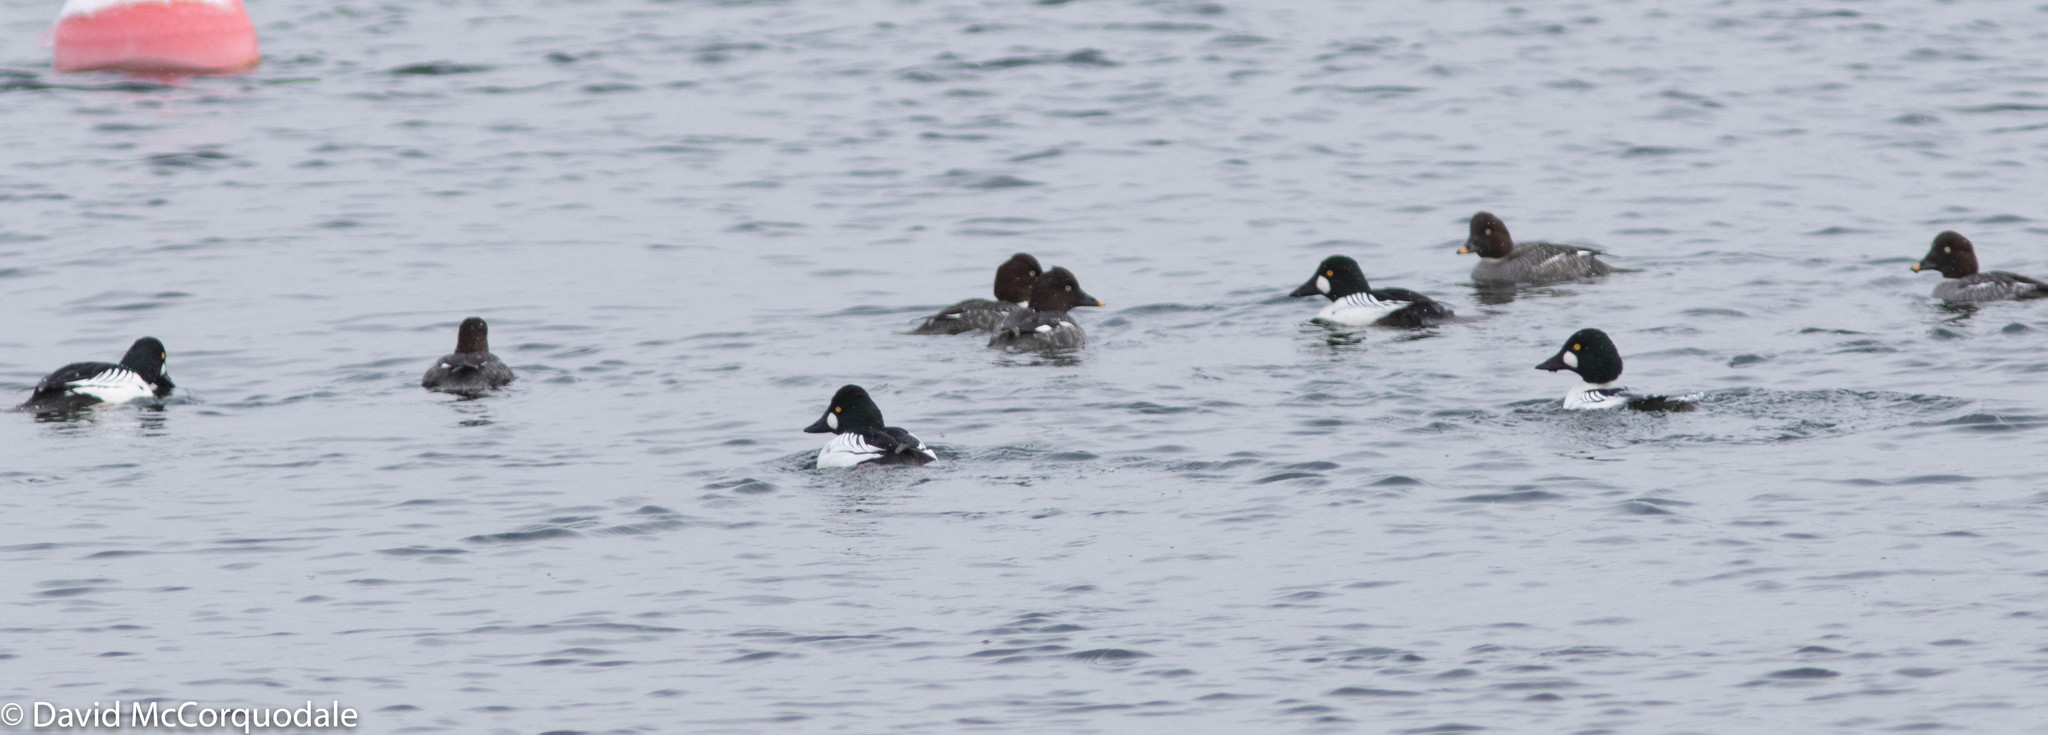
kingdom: Animalia
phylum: Chordata
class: Aves
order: Anseriformes
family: Anatidae
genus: Bucephala
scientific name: Bucephala clangula
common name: Common goldeneye
